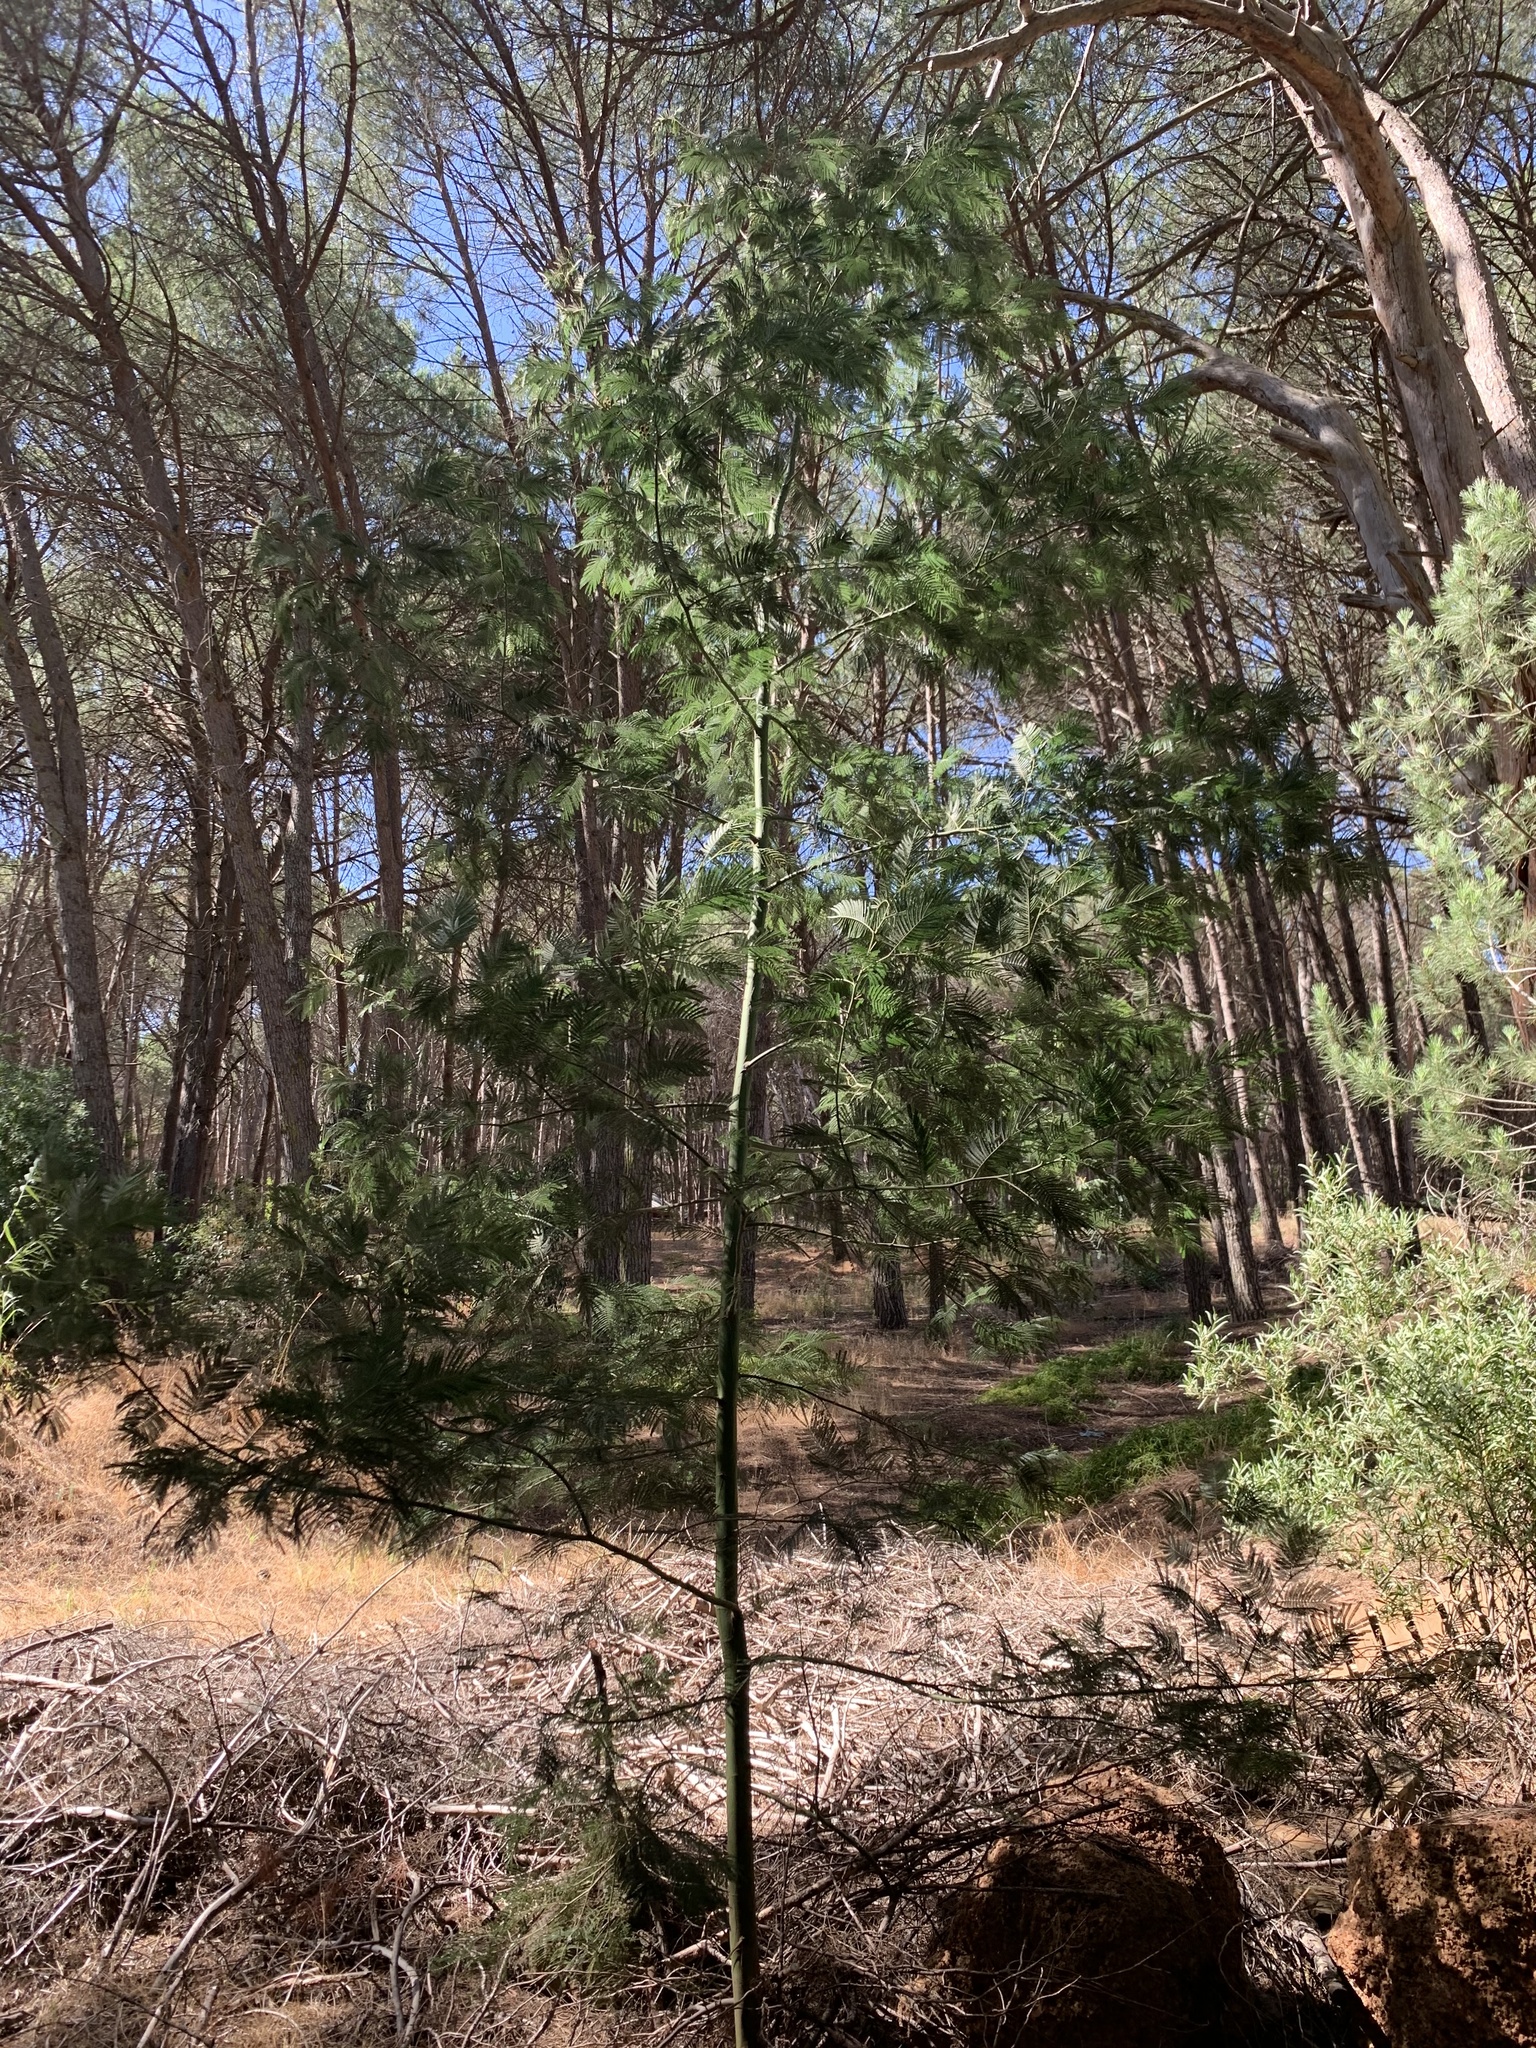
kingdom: Plantae
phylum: Tracheophyta
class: Magnoliopsida
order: Fabales
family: Fabaceae
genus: Acacia
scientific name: Acacia mearnsii
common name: Black wattle
